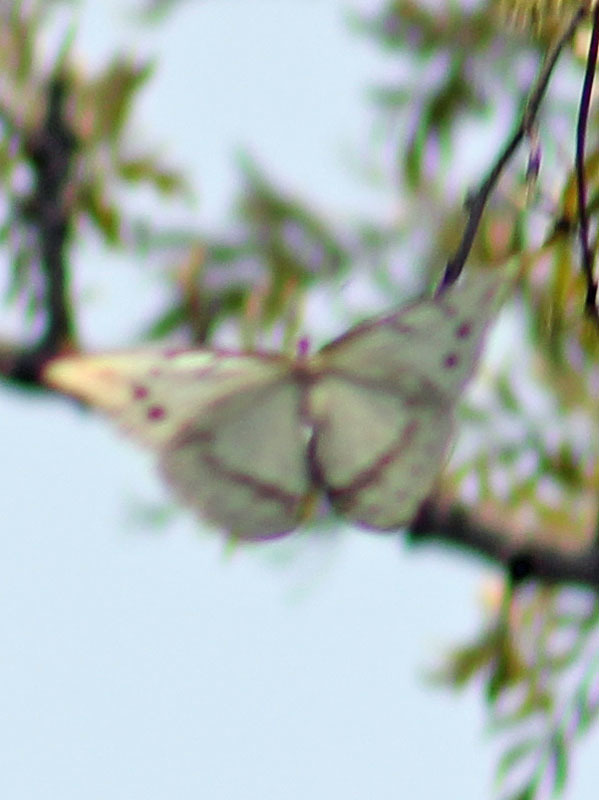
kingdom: Animalia
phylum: Arthropoda
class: Insecta
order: Lepidoptera
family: Nymphalidae
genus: Morpho
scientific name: Morpho polyphemus
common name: White morpho
